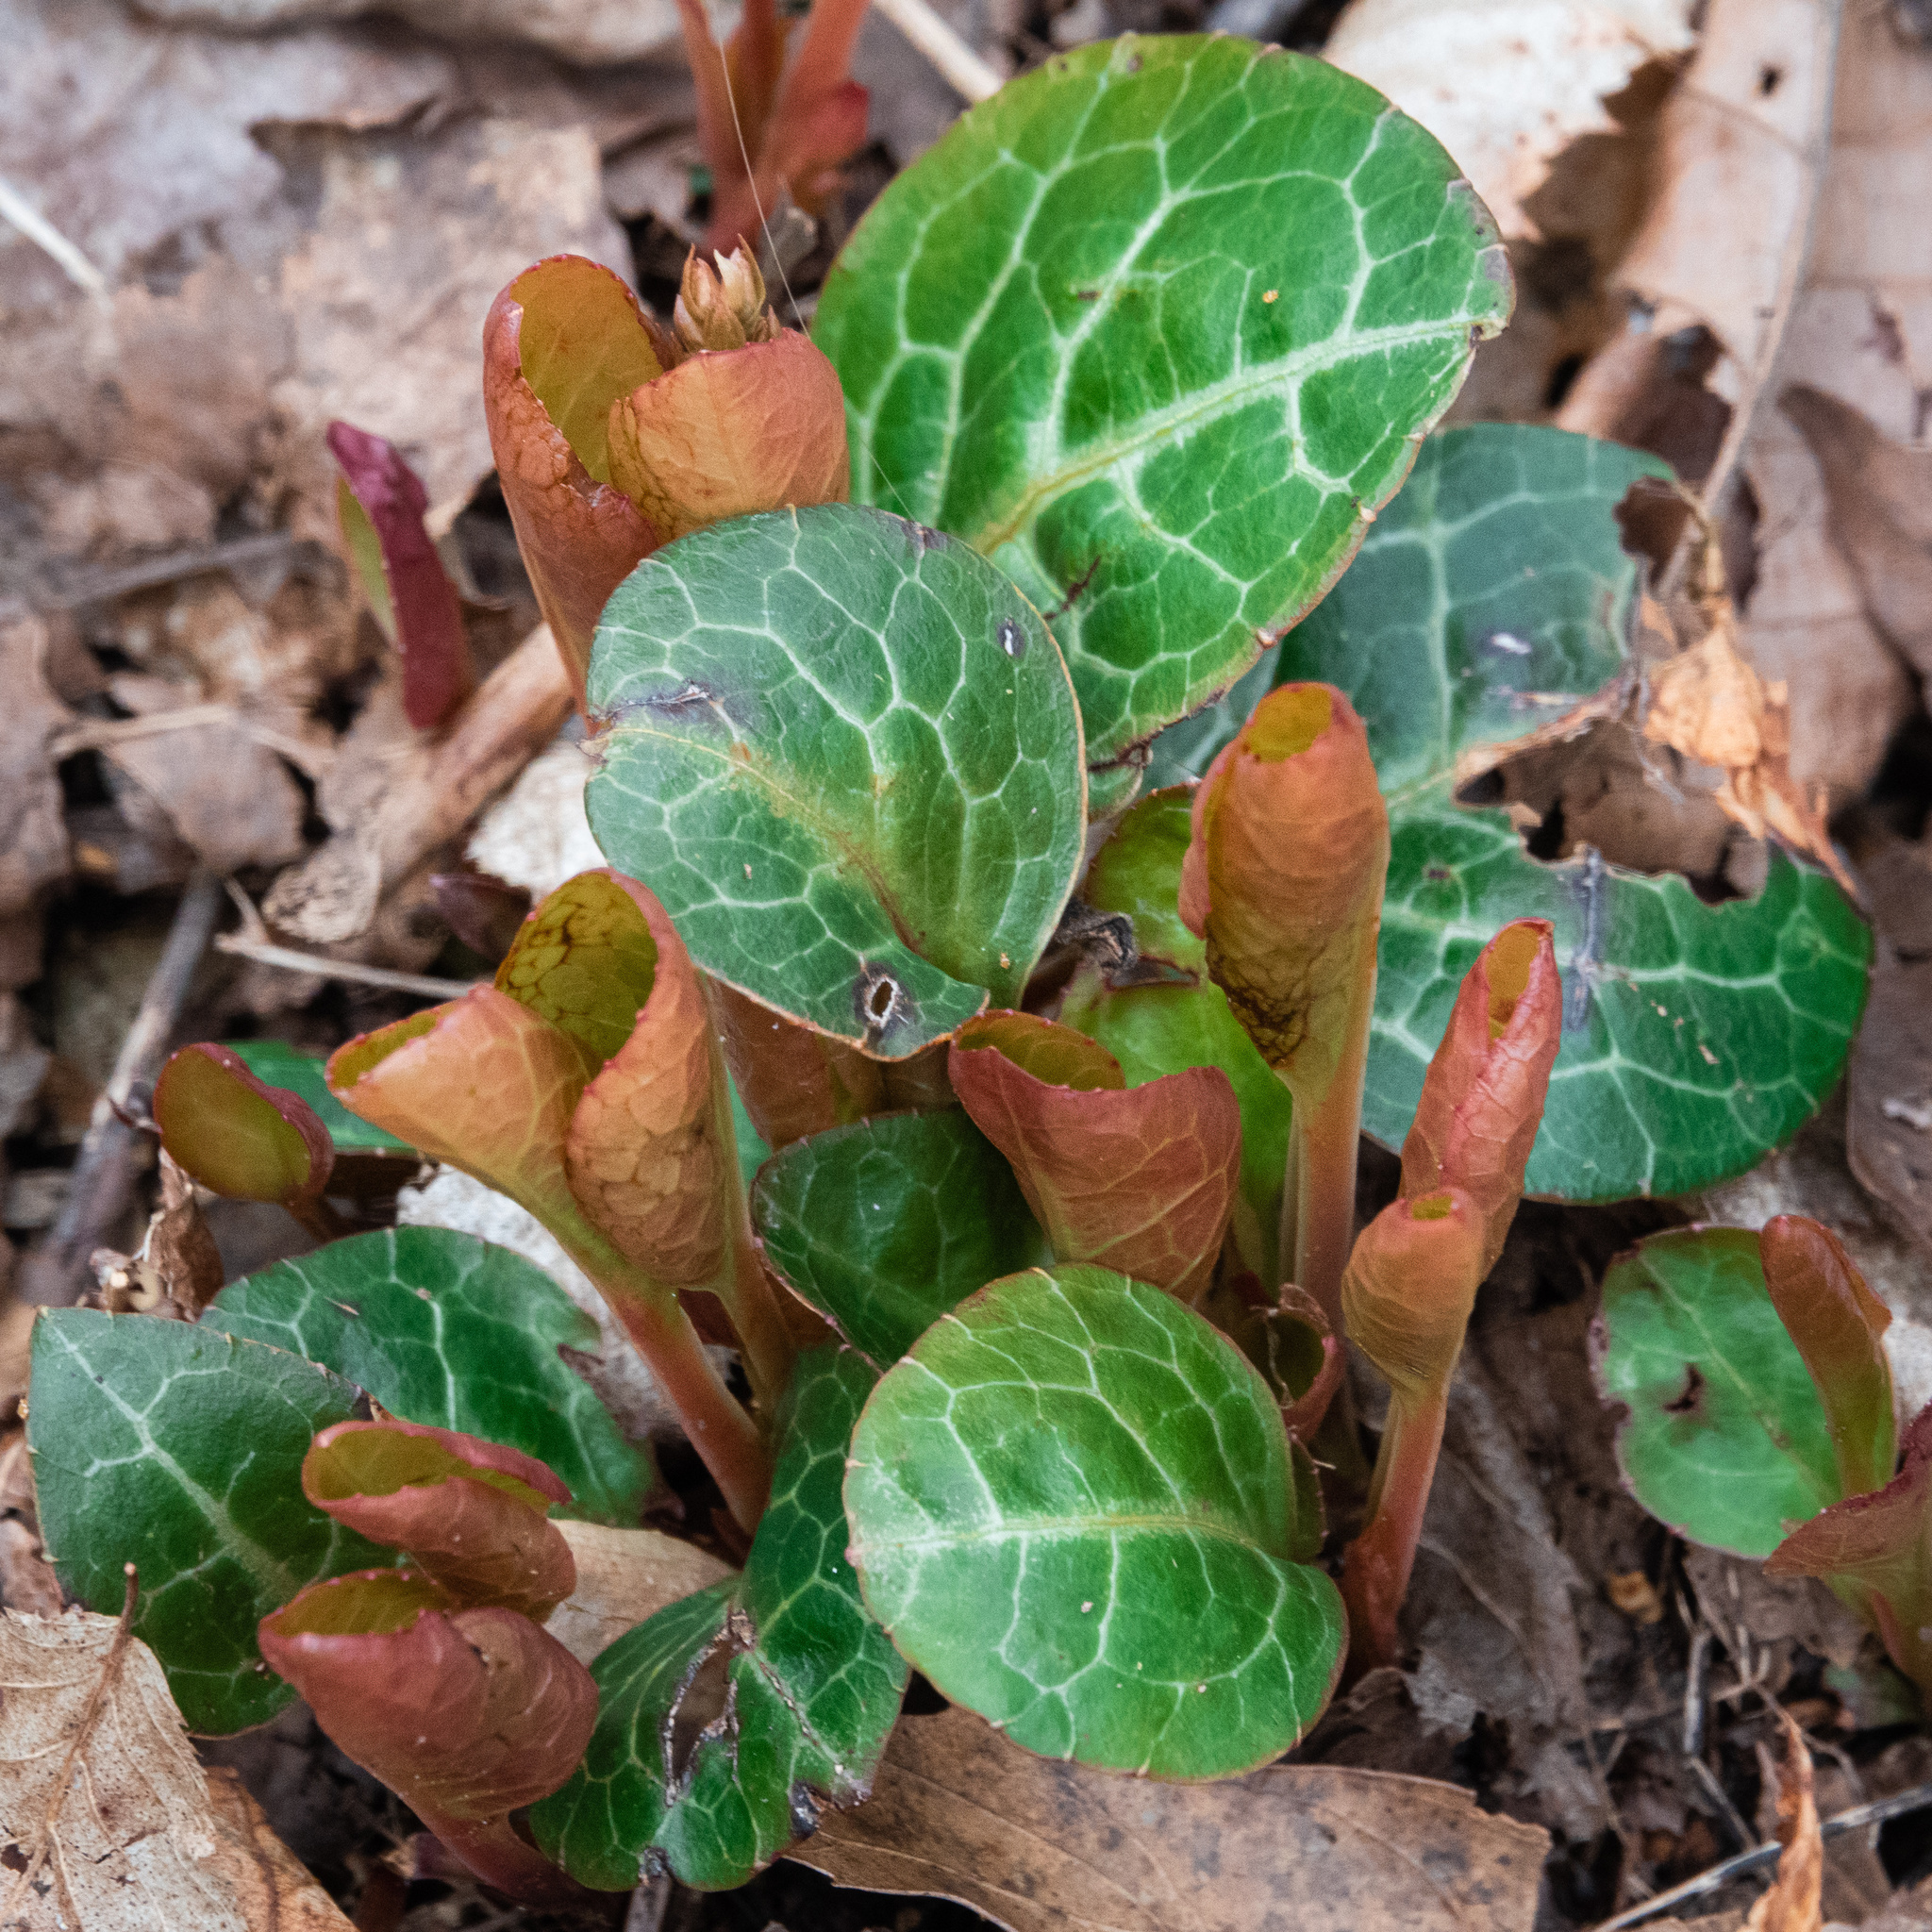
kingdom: Plantae
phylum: Tracheophyta
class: Magnoliopsida
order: Ericales
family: Ericaceae
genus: Pyrola
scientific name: Pyrola americana
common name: American wintergreen
